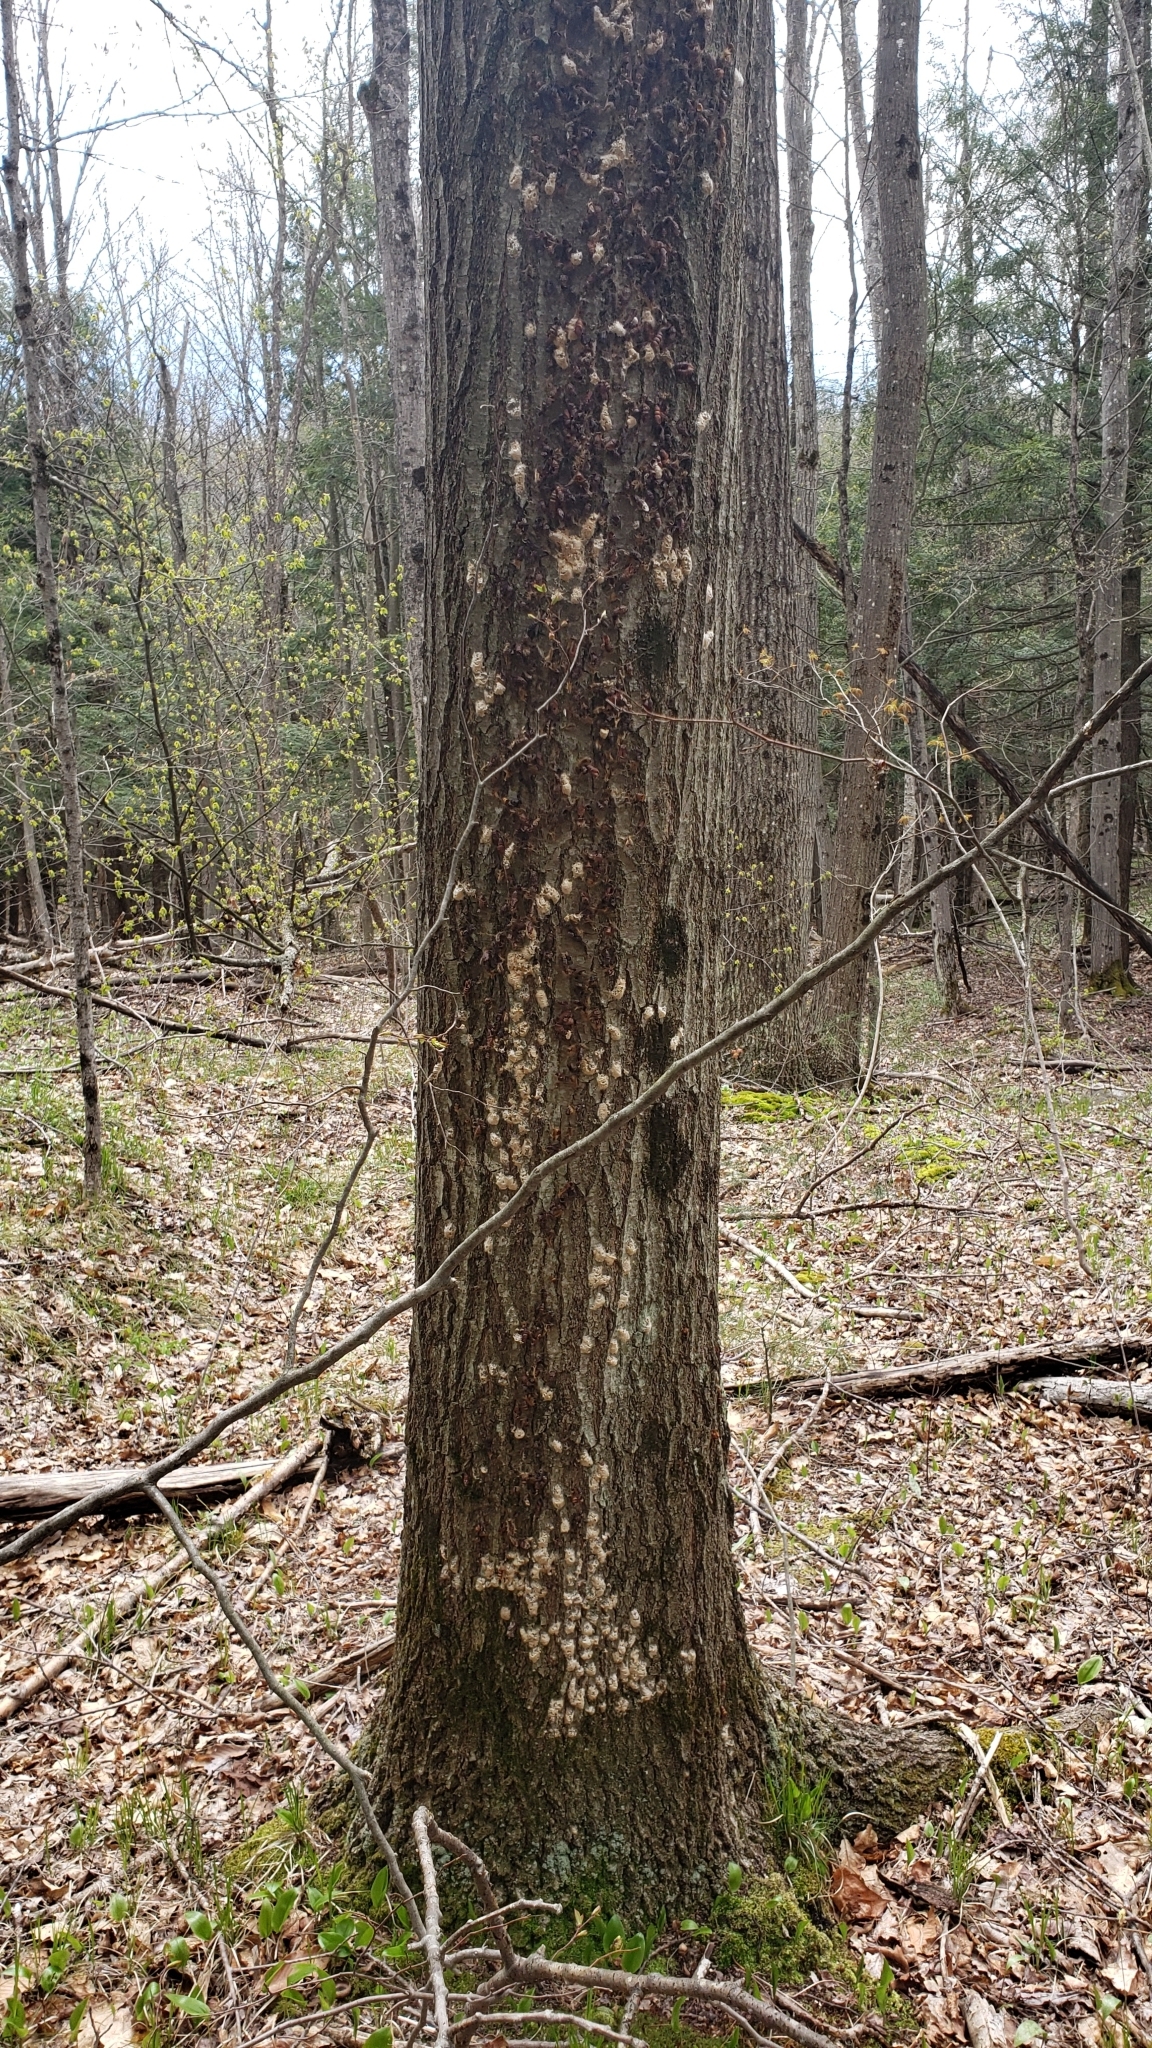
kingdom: Animalia
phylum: Arthropoda
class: Insecta
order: Lepidoptera
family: Erebidae
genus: Lymantria
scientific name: Lymantria dispar
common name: Gypsy moth
